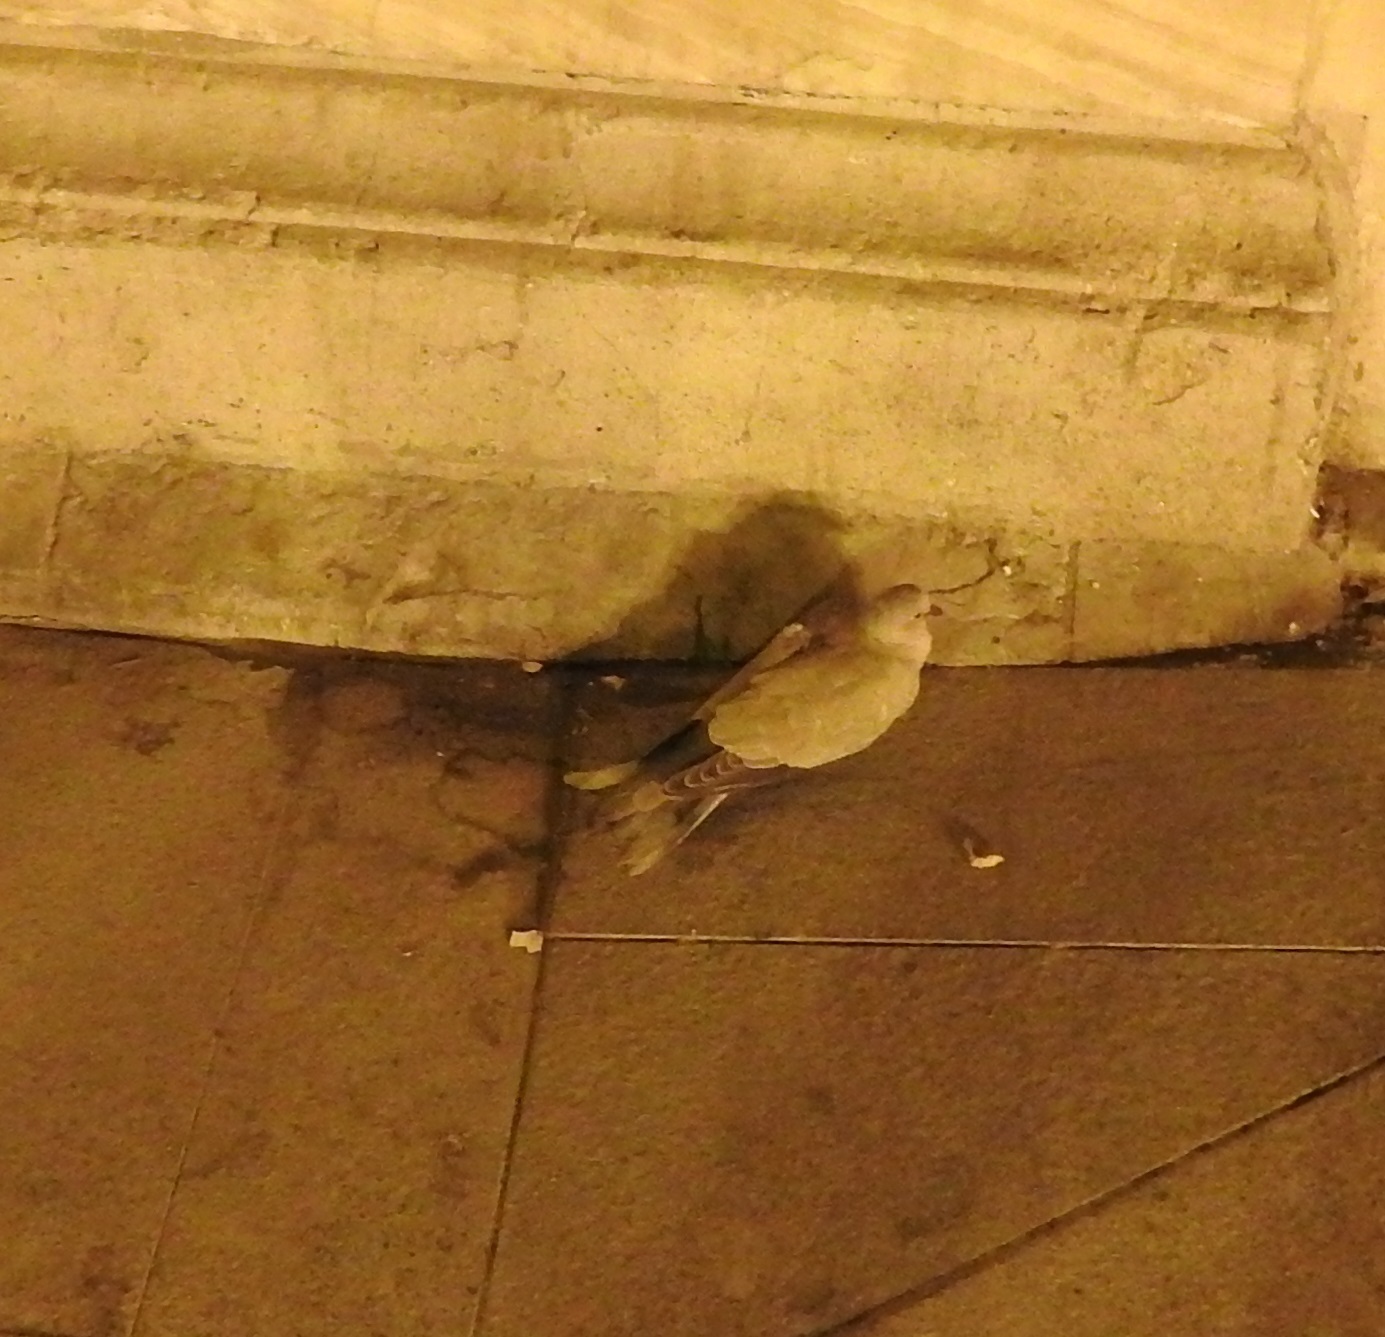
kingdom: Animalia
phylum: Chordata
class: Aves
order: Columbiformes
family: Columbidae
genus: Streptopelia
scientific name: Streptopelia decaocto
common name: Eurasian collared dove
